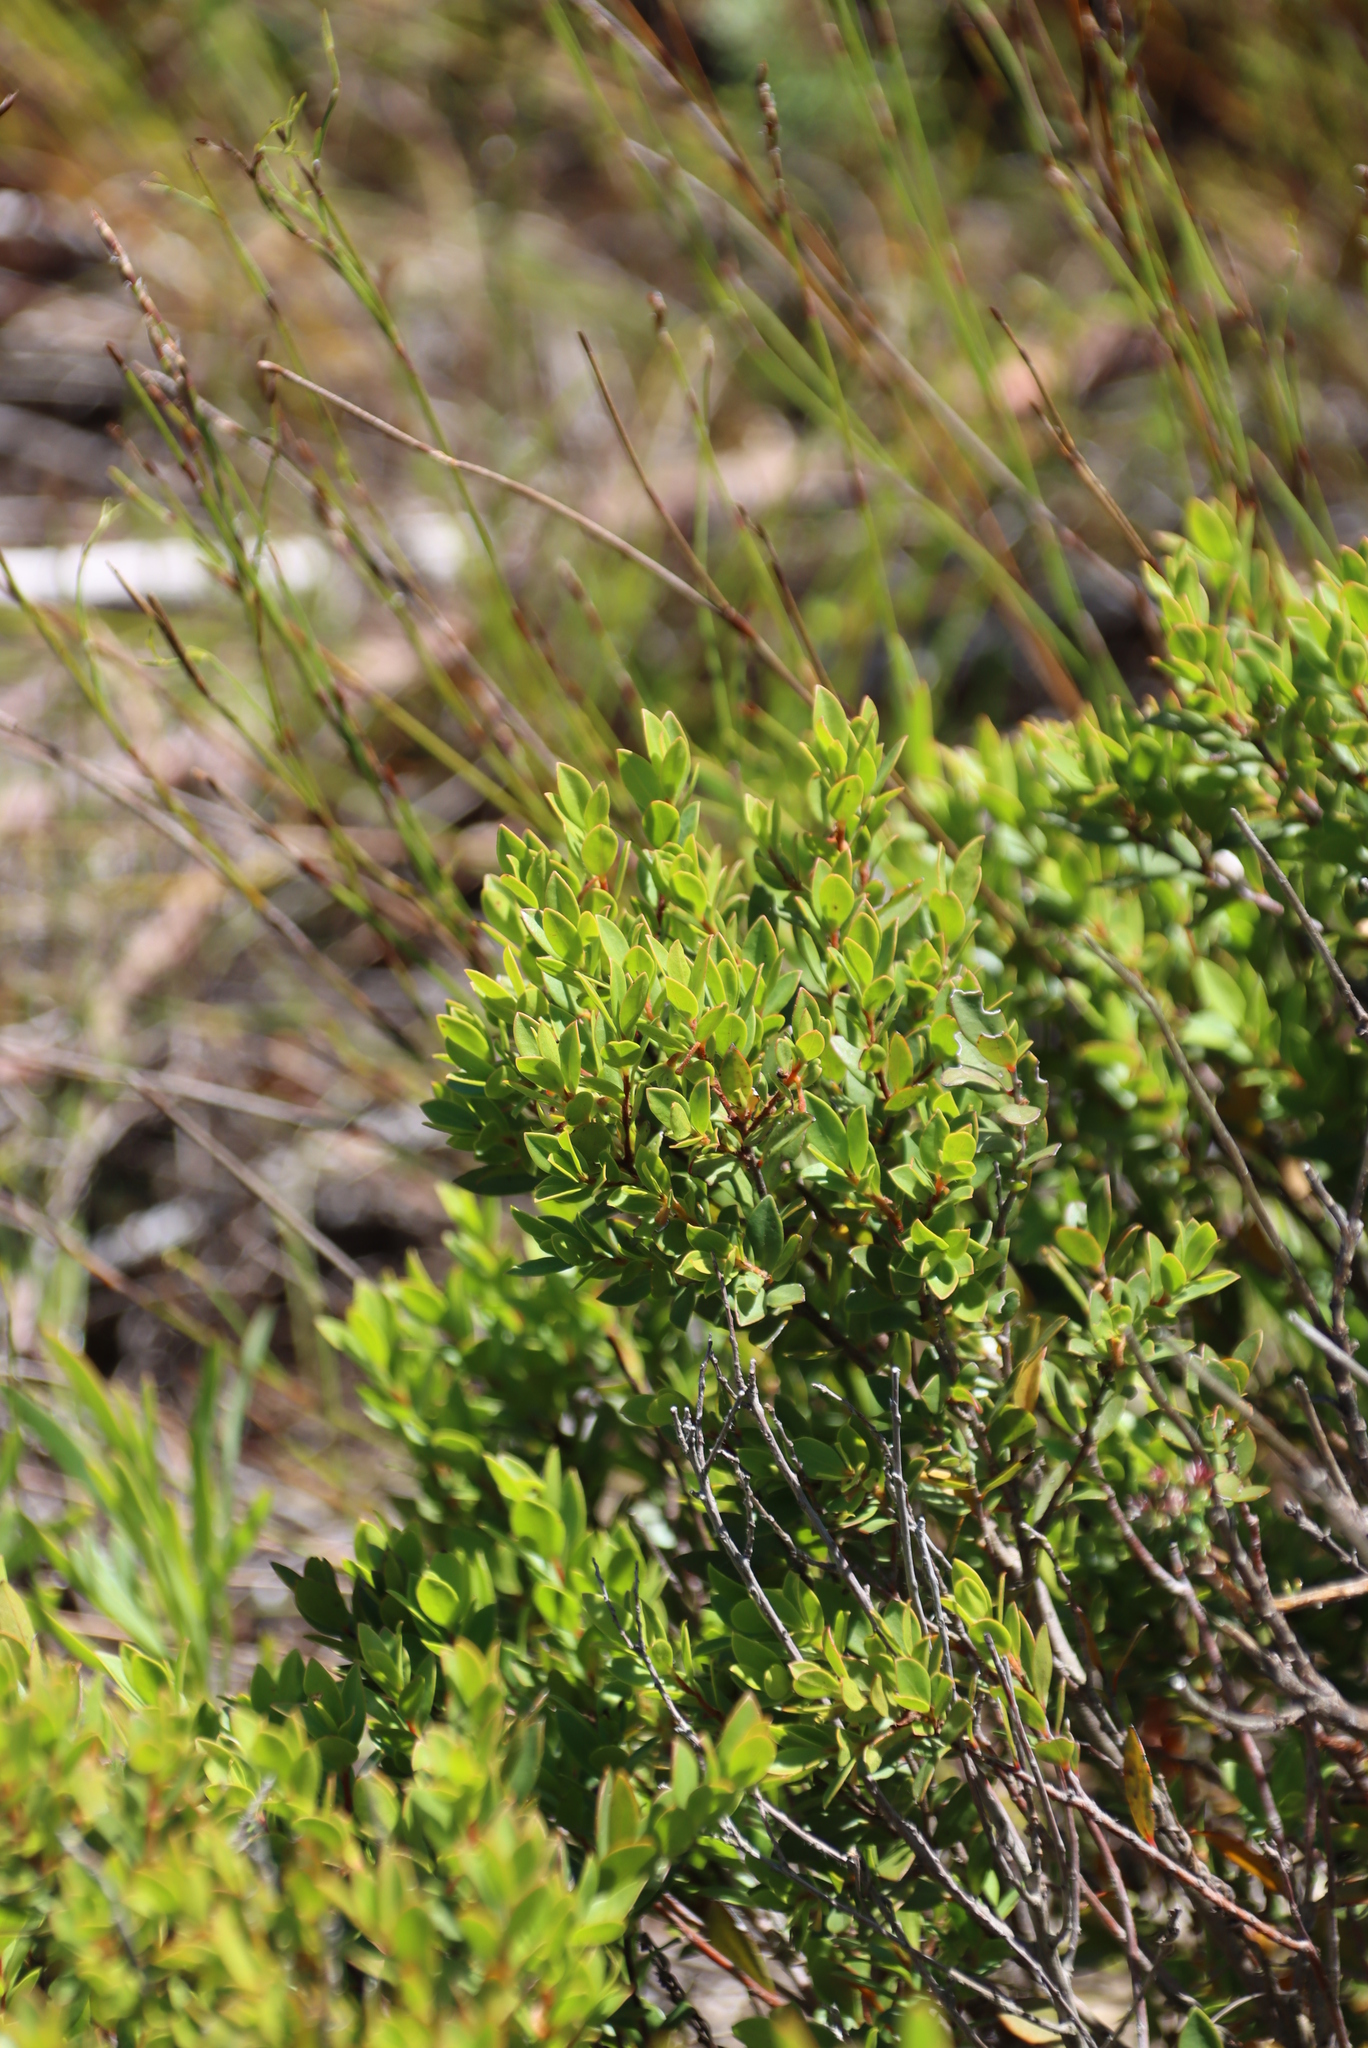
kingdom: Plantae
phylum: Tracheophyta
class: Magnoliopsida
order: Ericales
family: Ebenaceae
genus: Diospyros
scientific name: Diospyros glabra
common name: Fynbos star apple
